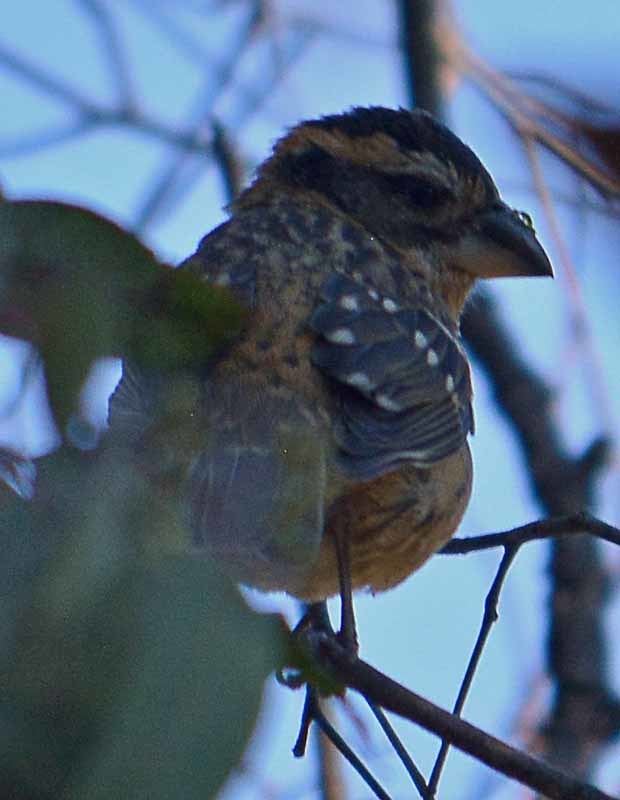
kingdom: Animalia
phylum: Chordata
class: Aves
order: Passeriformes
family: Cardinalidae
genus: Pheucticus
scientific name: Pheucticus melanocephalus
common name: Black-headed grosbeak
